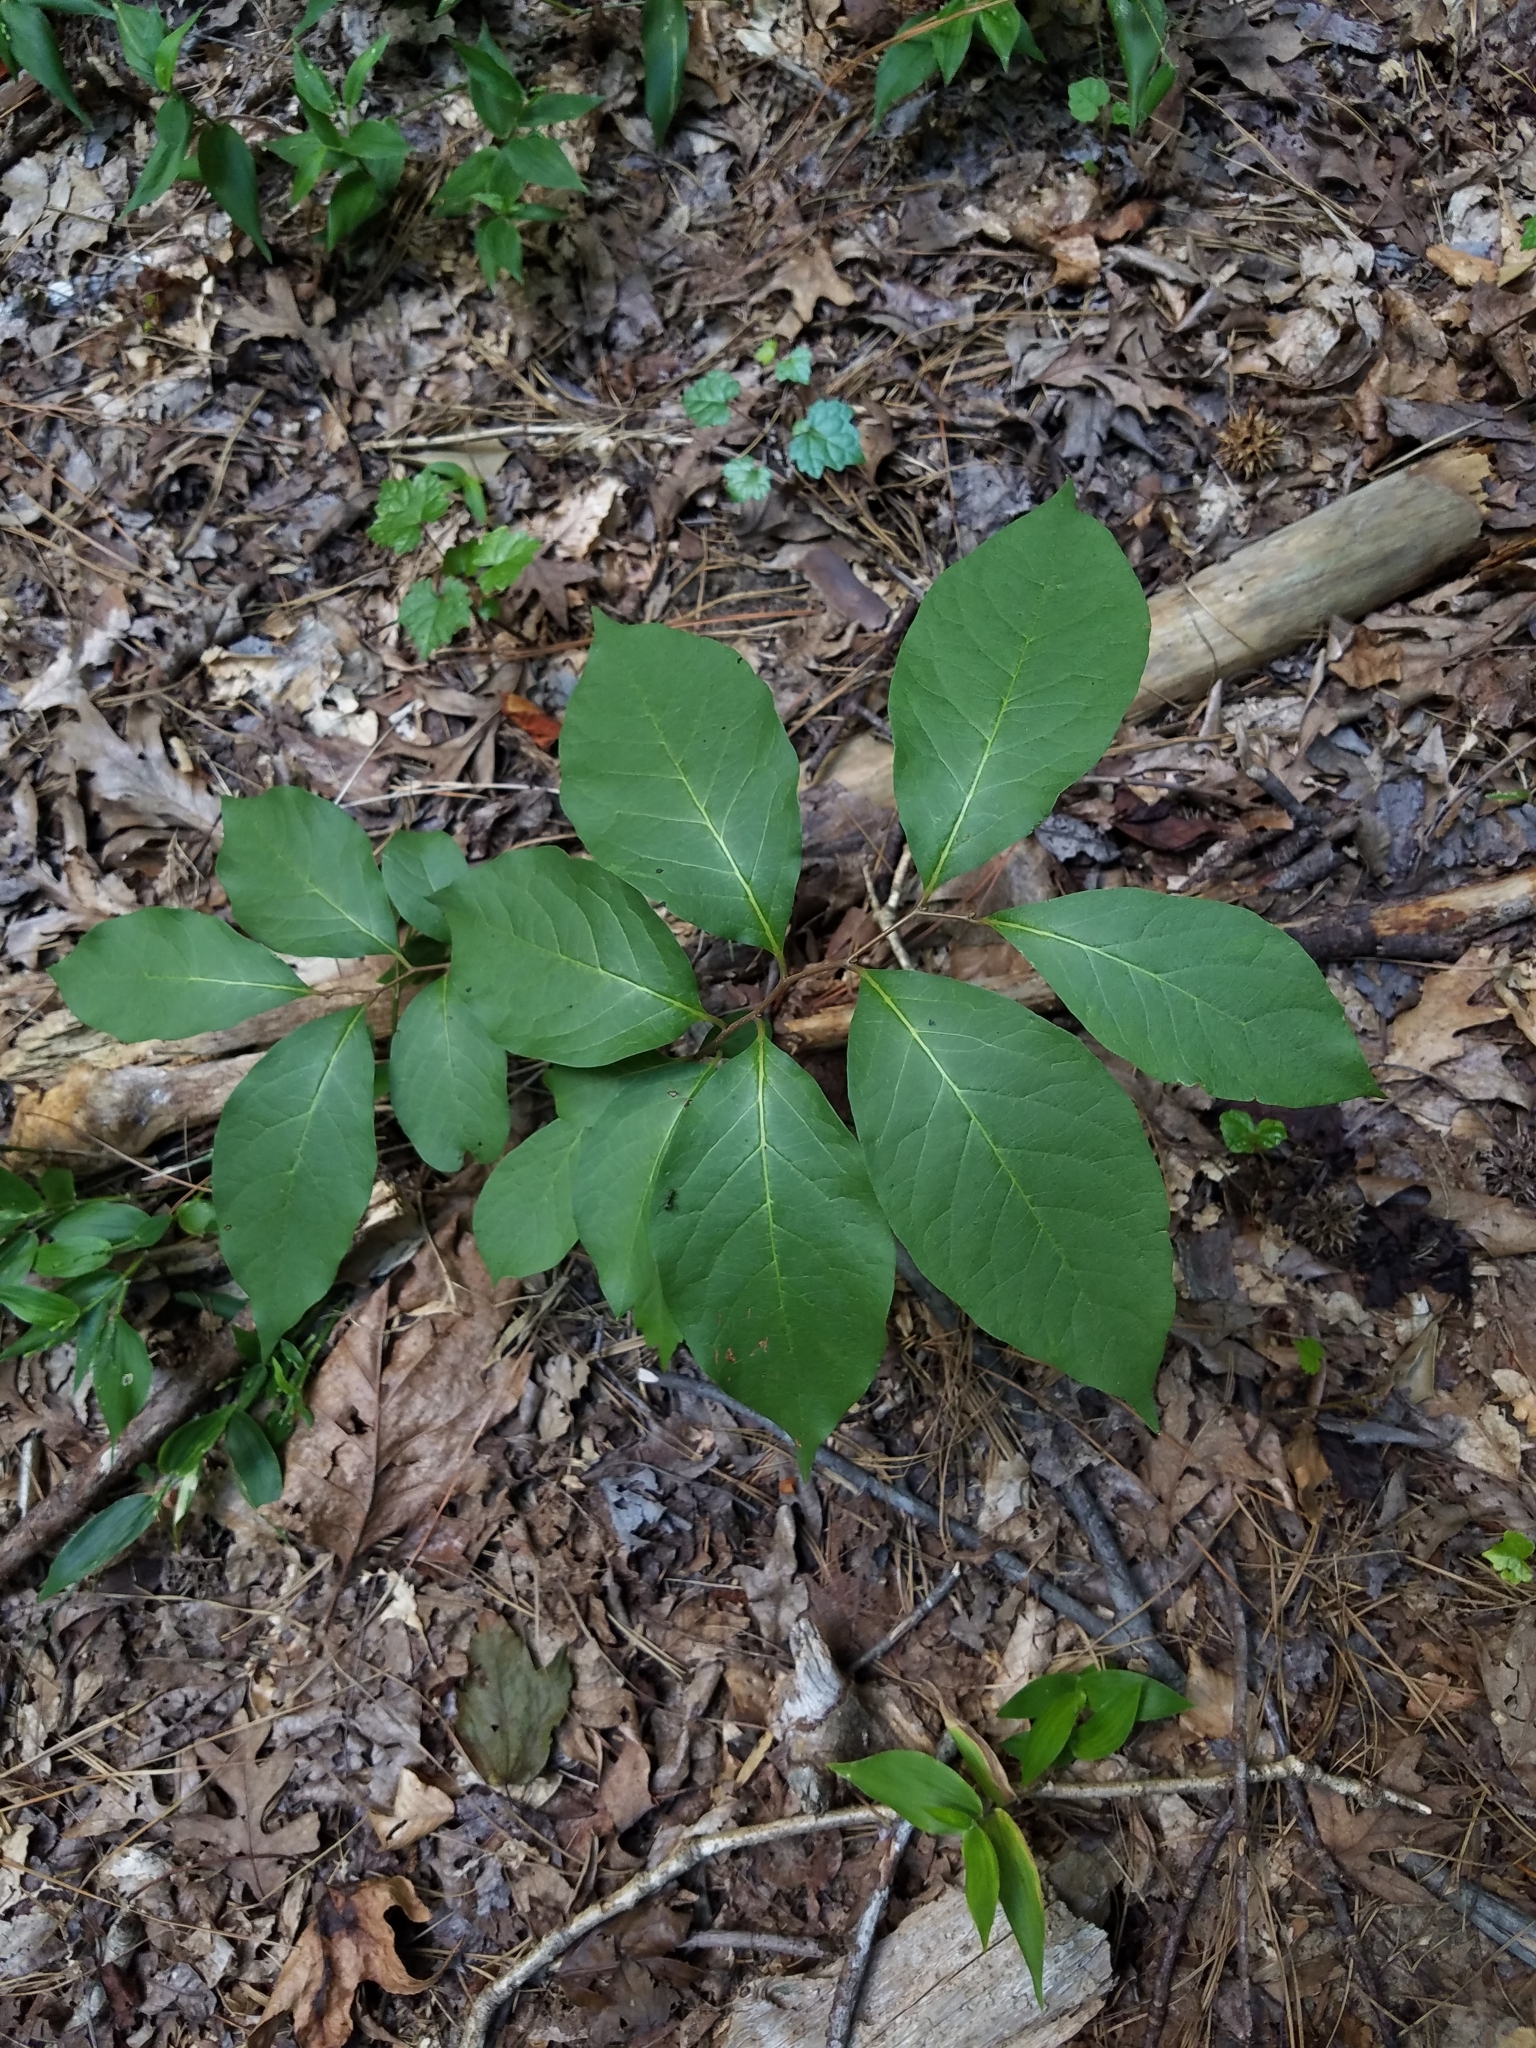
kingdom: Plantae
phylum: Tracheophyta
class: Magnoliopsida
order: Cornales
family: Nyssaceae
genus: Nyssa
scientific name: Nyssa sylvatica
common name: Black tupelo
